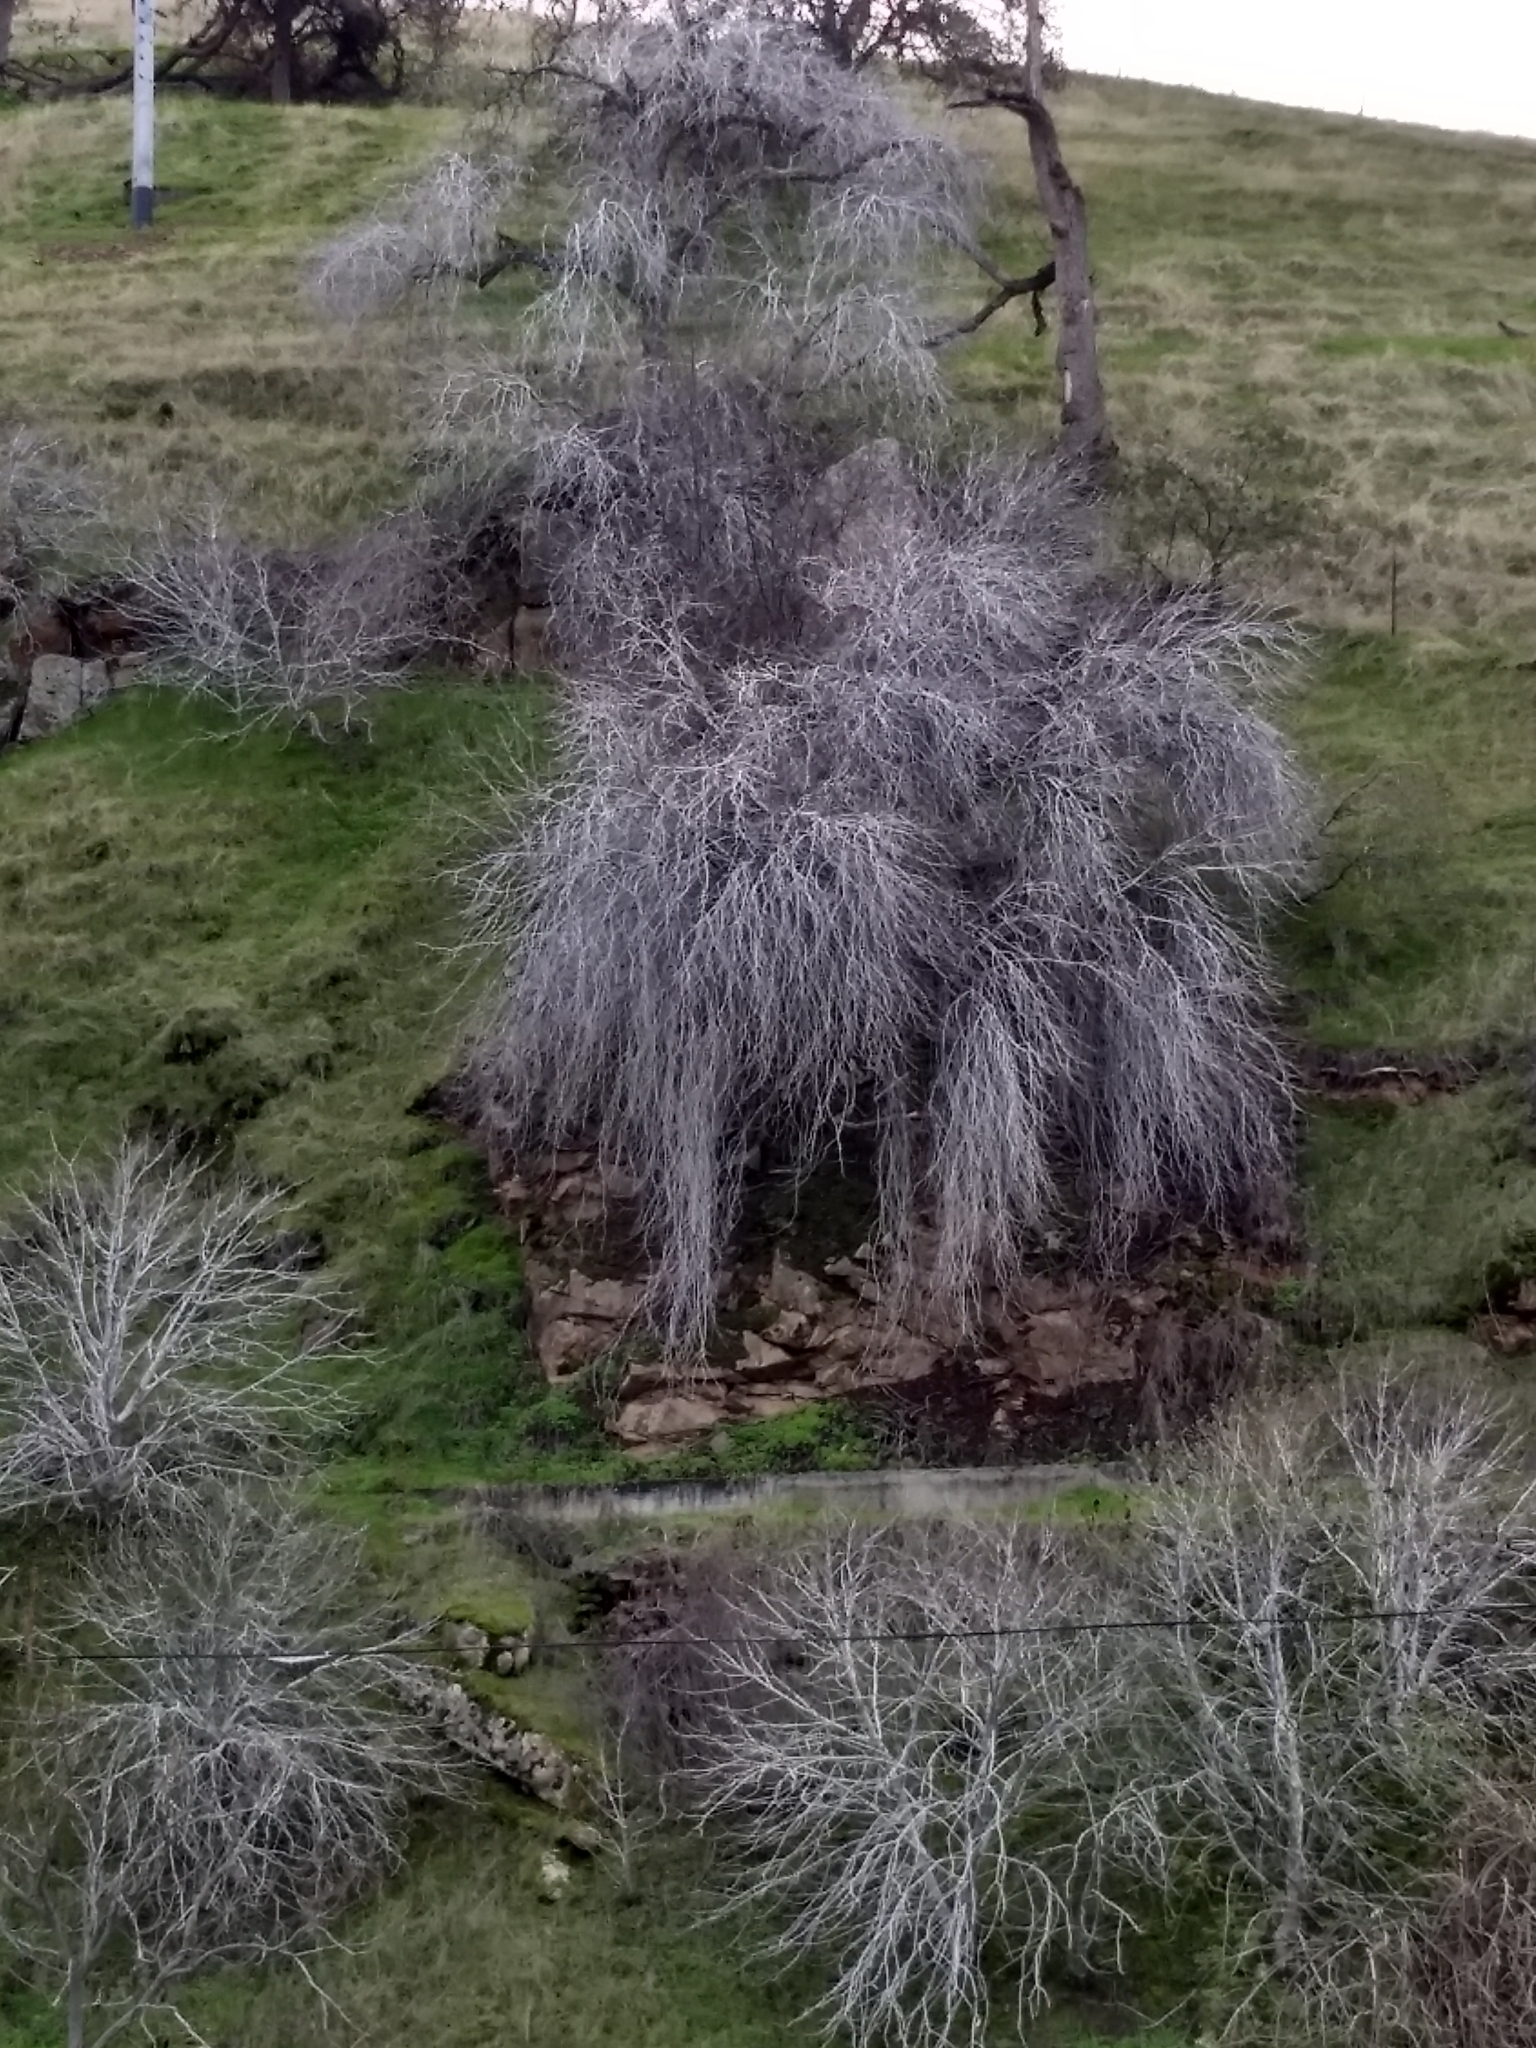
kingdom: Plantae
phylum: Tracheophyta
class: Magnoliopsida
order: Sapindales
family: Sapindaceae
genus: Aesculus
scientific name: Aesculus californica
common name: California buckeye
